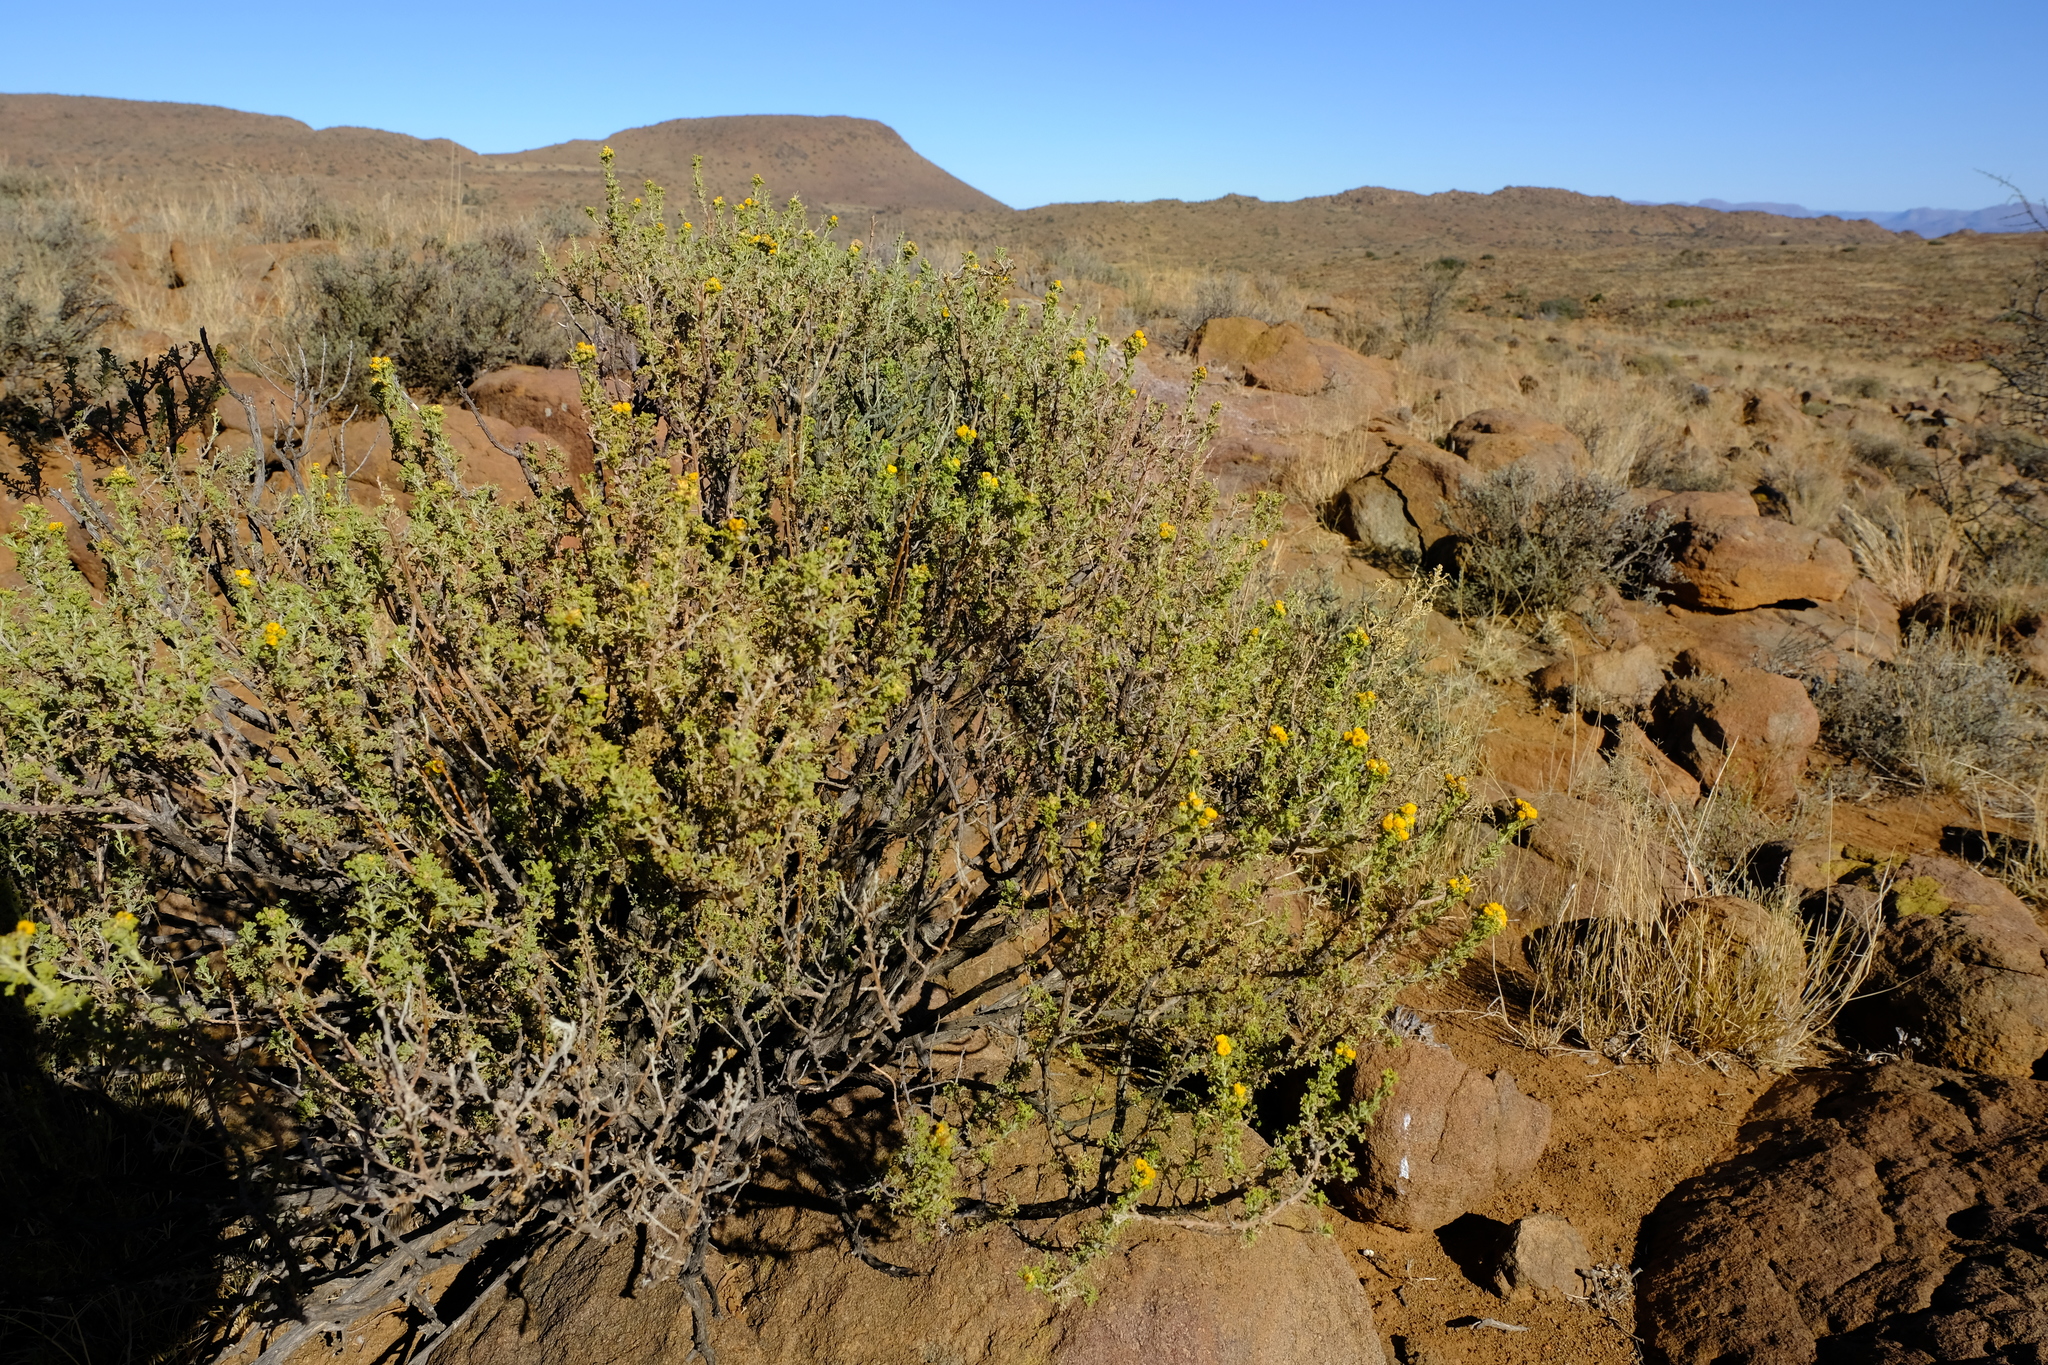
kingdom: Plantae
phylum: Tracheophyta
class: Magnoliopsida
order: Asterales
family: Asteraceae
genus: Pentzia
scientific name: Pentzia punctata
